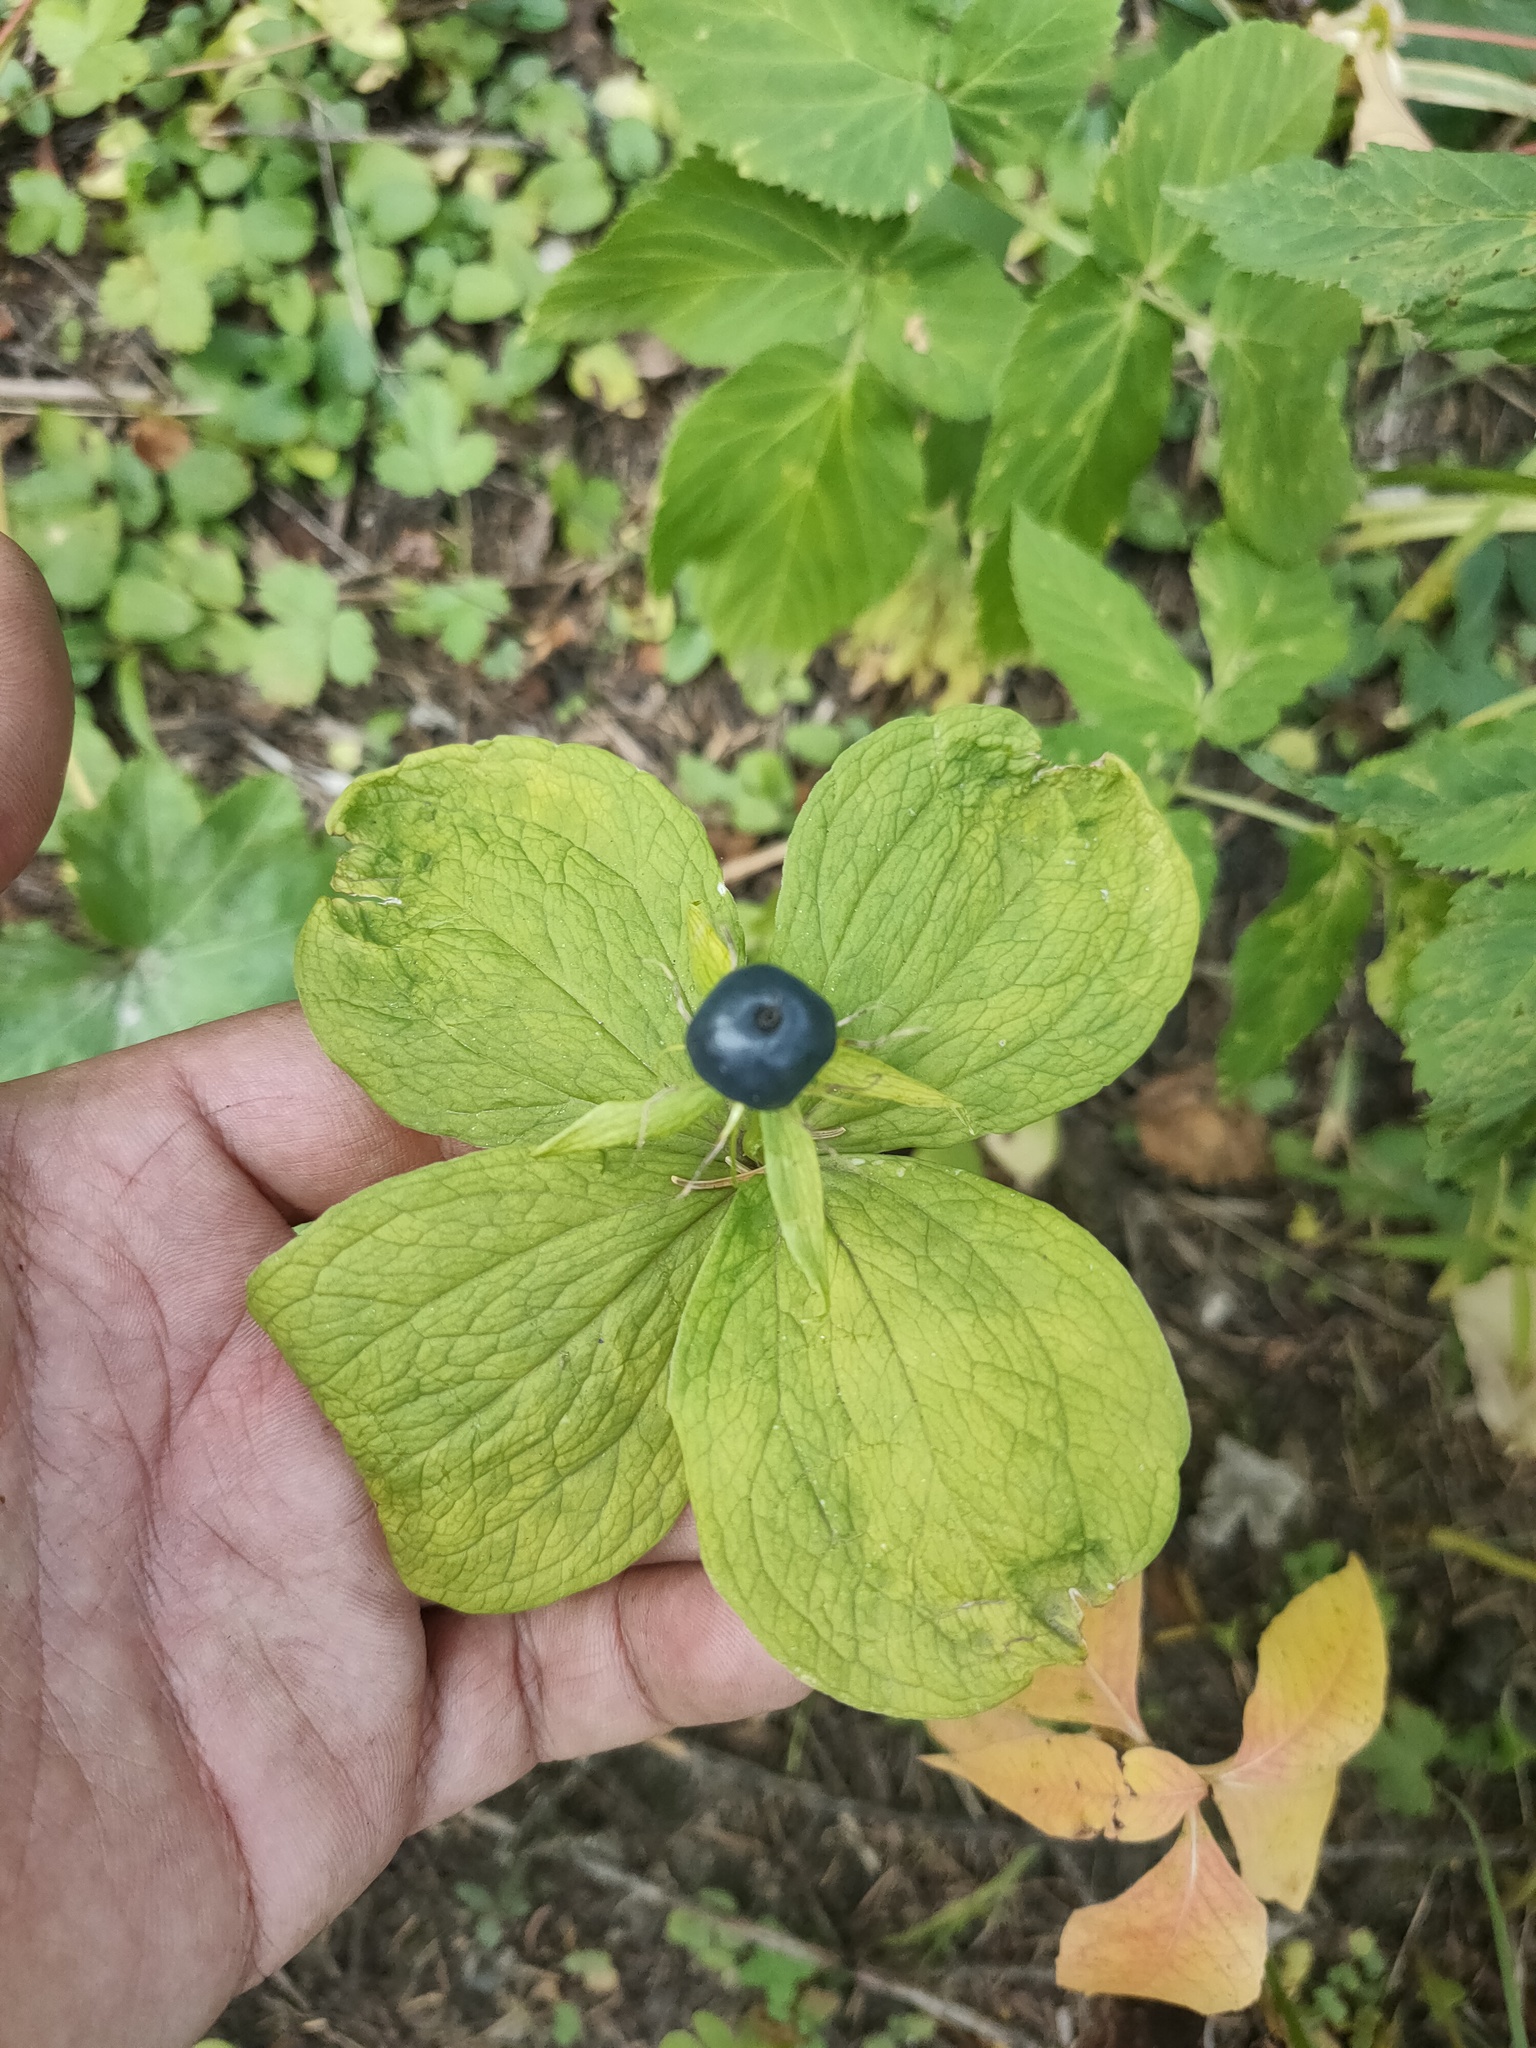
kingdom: Plantae
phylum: Tracheophyta
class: Liliopsida
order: Liliales
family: Melanthiaceae
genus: Paris
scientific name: Paris quadrifolia
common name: Herb-paris
